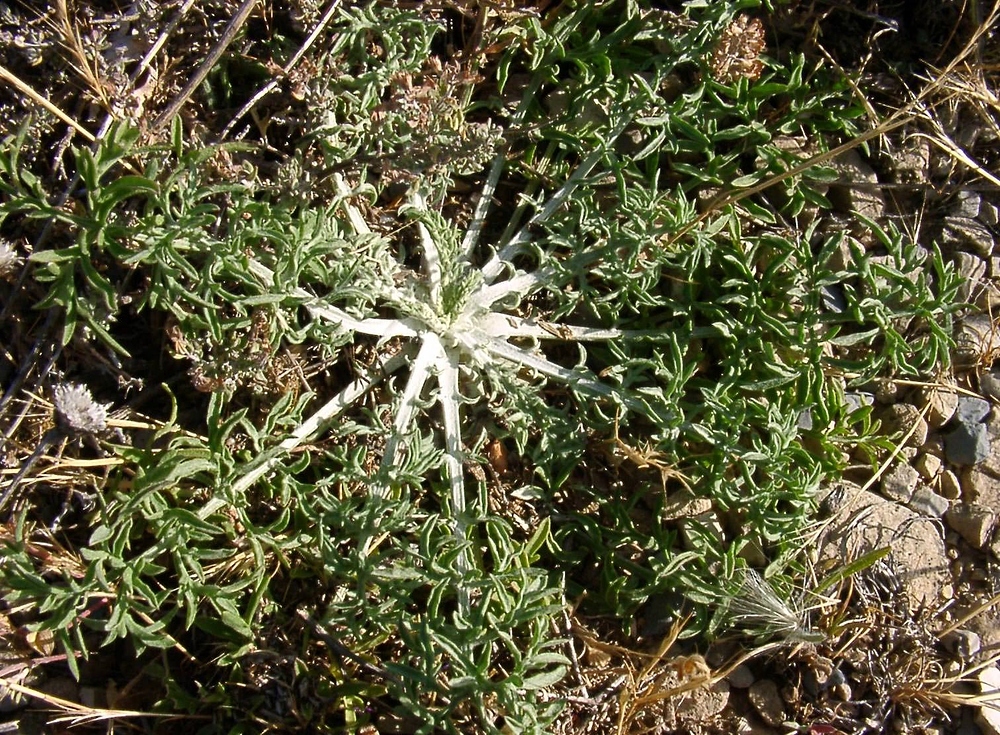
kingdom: Plantae
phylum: Tracheophyta
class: Magnoliopsida
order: Asterales
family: Asteraceae
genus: Centaurea
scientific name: Centaurea paniculata
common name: Jersey knapweed
